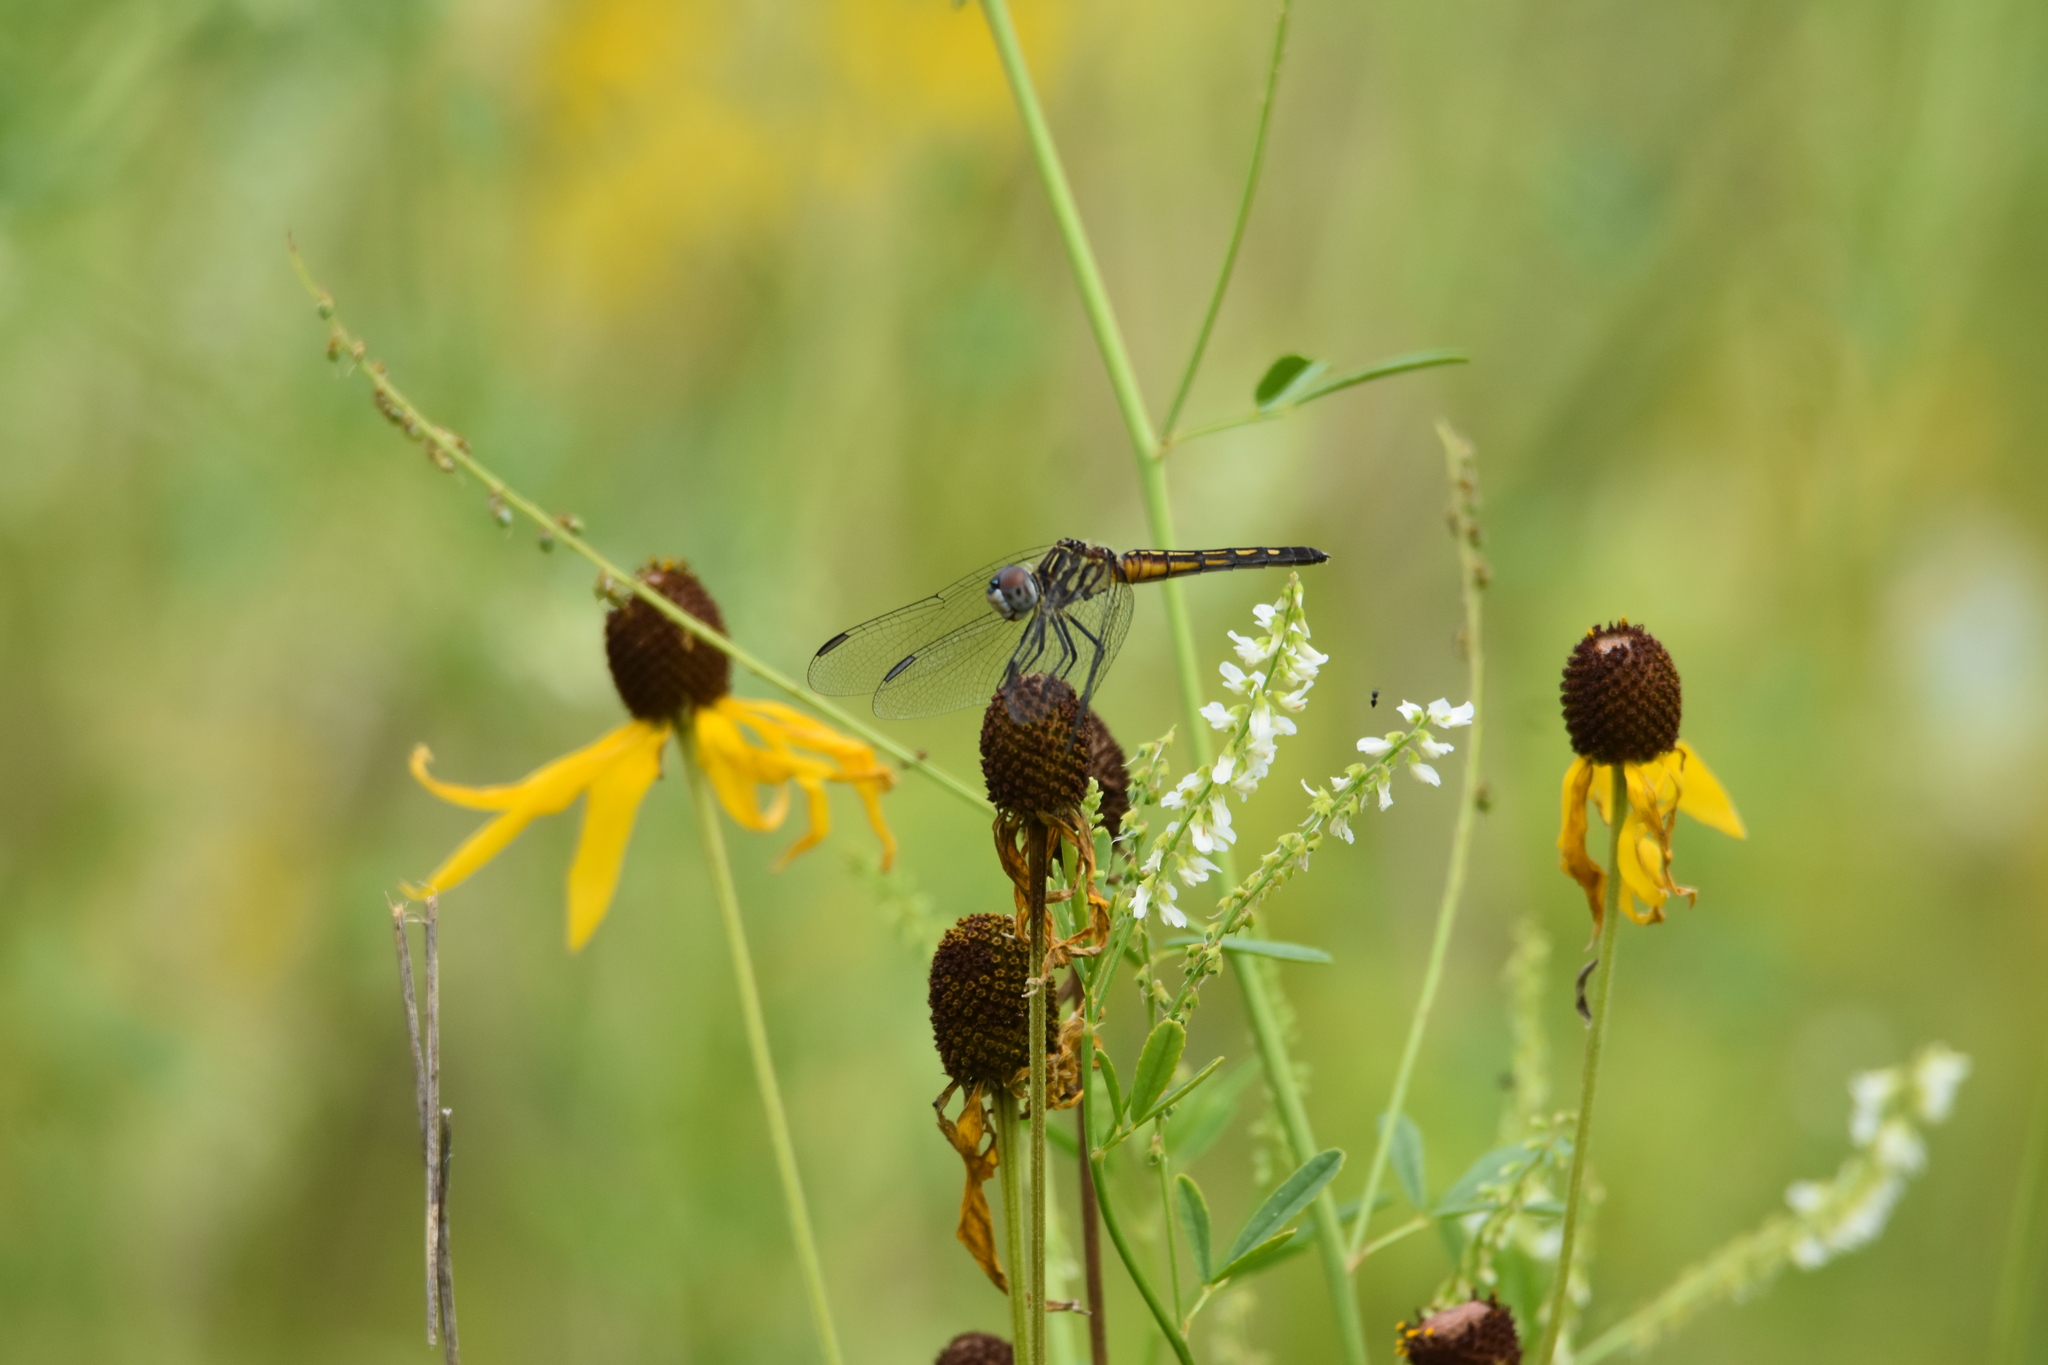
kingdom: Animalia
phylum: Arthropoda
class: Insecta
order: Odonata
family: Libellulidae
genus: Pachydiplax
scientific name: Pachydiplax longipennis
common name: Blue dasher
